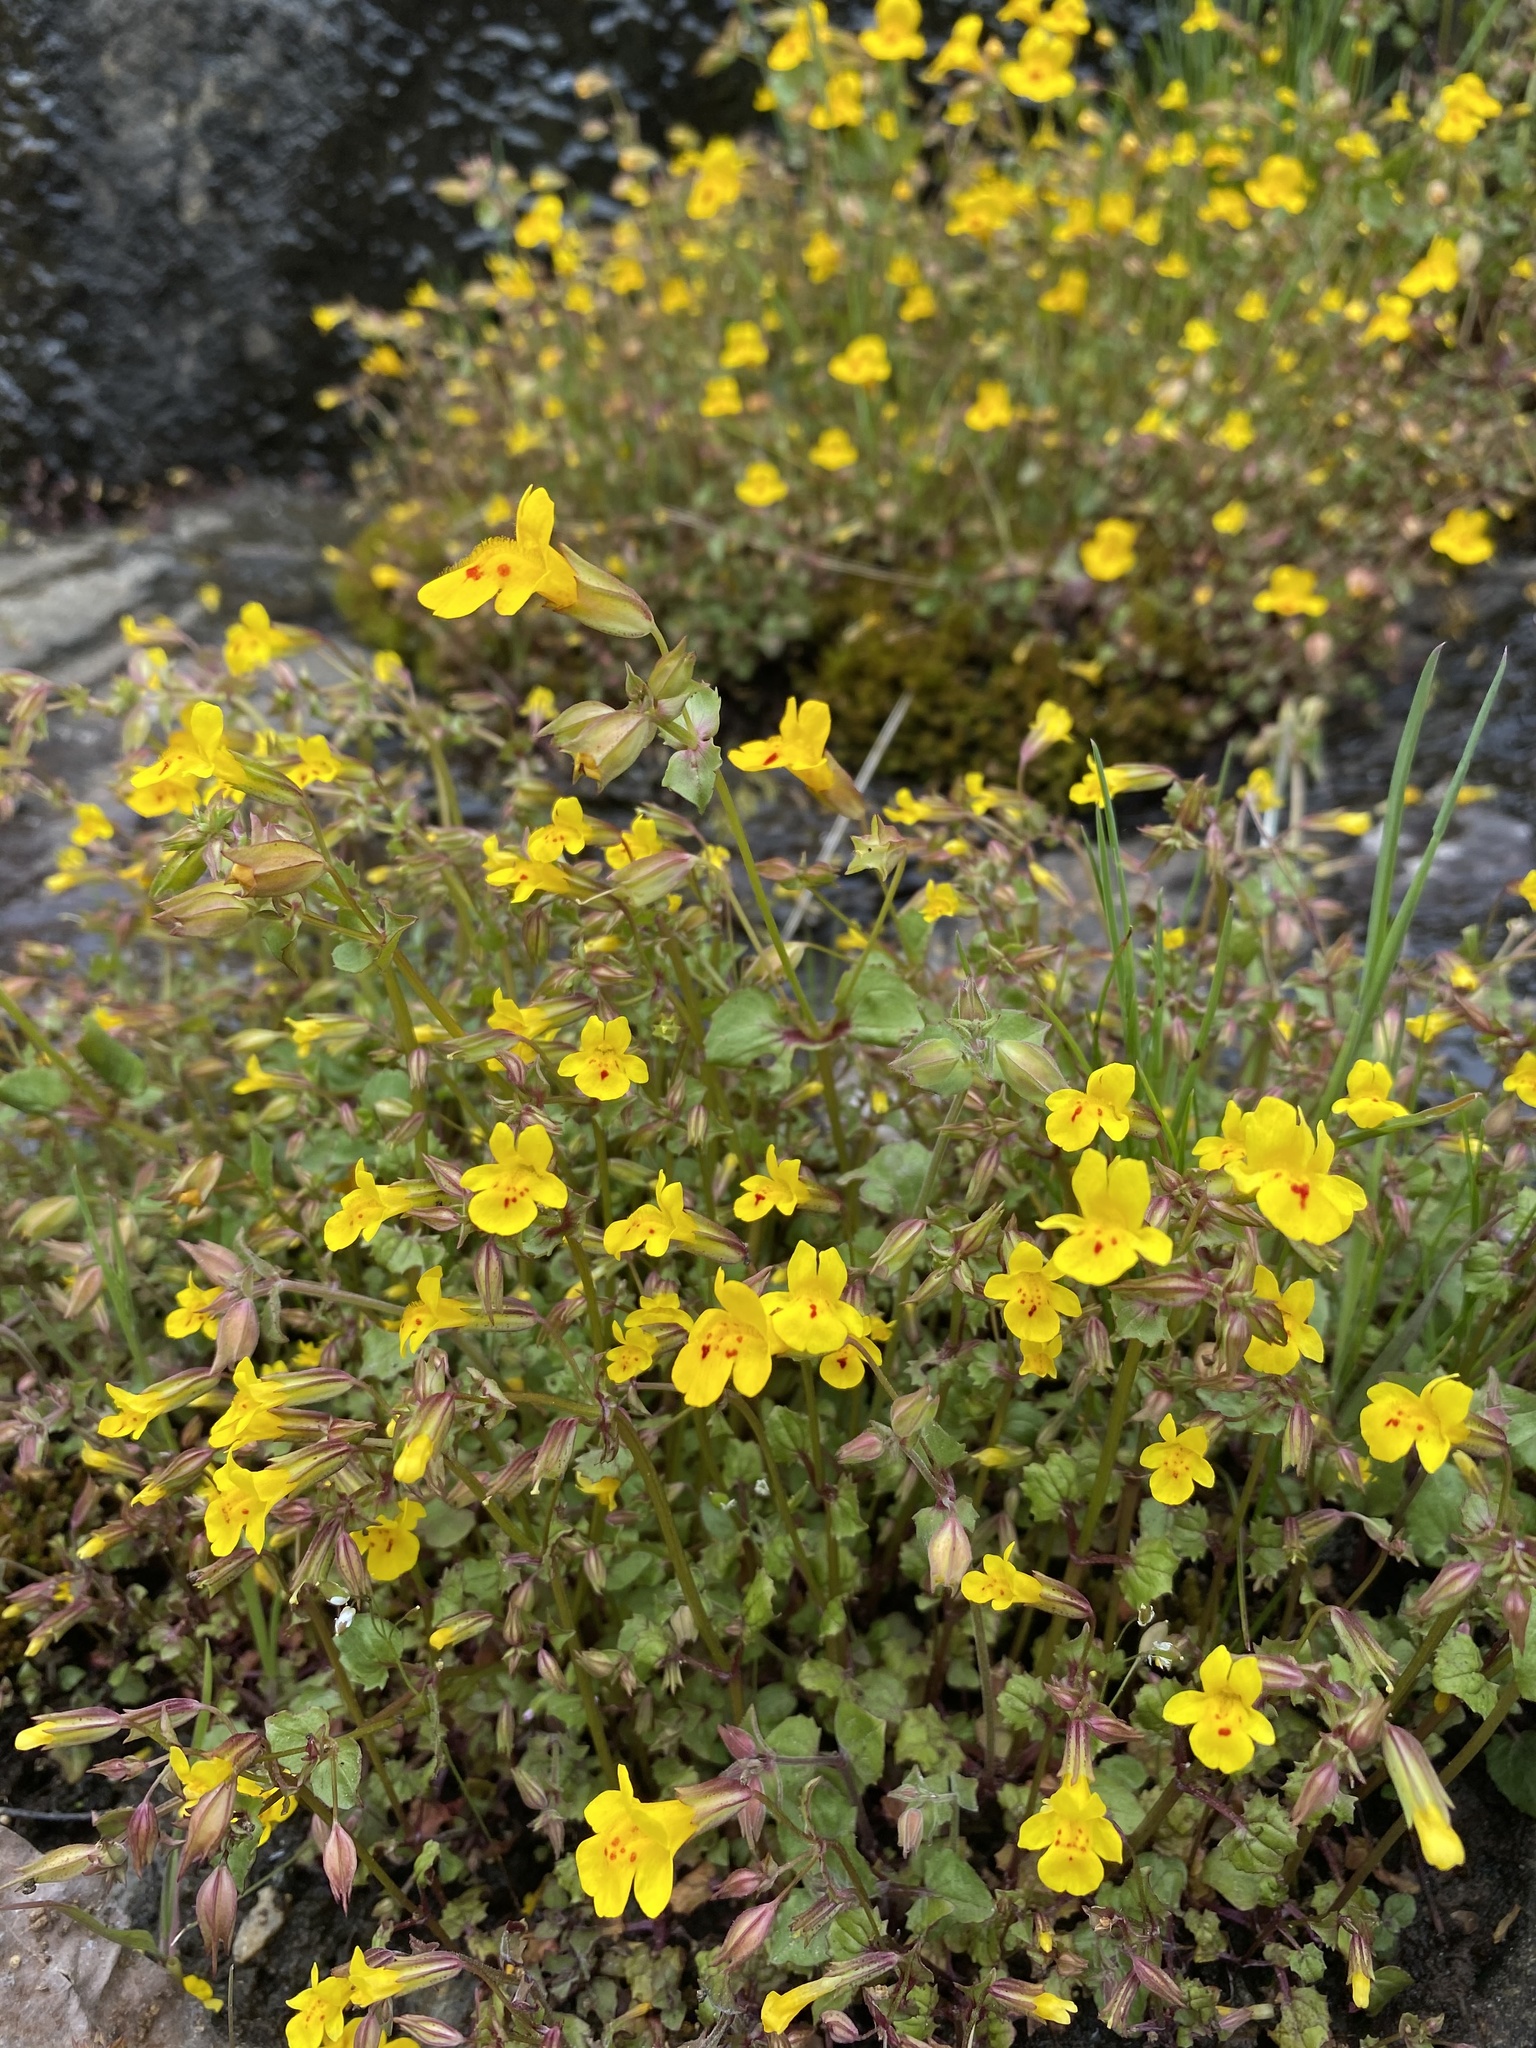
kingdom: Plantae
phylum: Tracheophyta
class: Magnoliopsida
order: Lamiales
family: Phrymaceae
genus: Erythranthe
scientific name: Erythranthe guttata
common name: Monkeyflower
